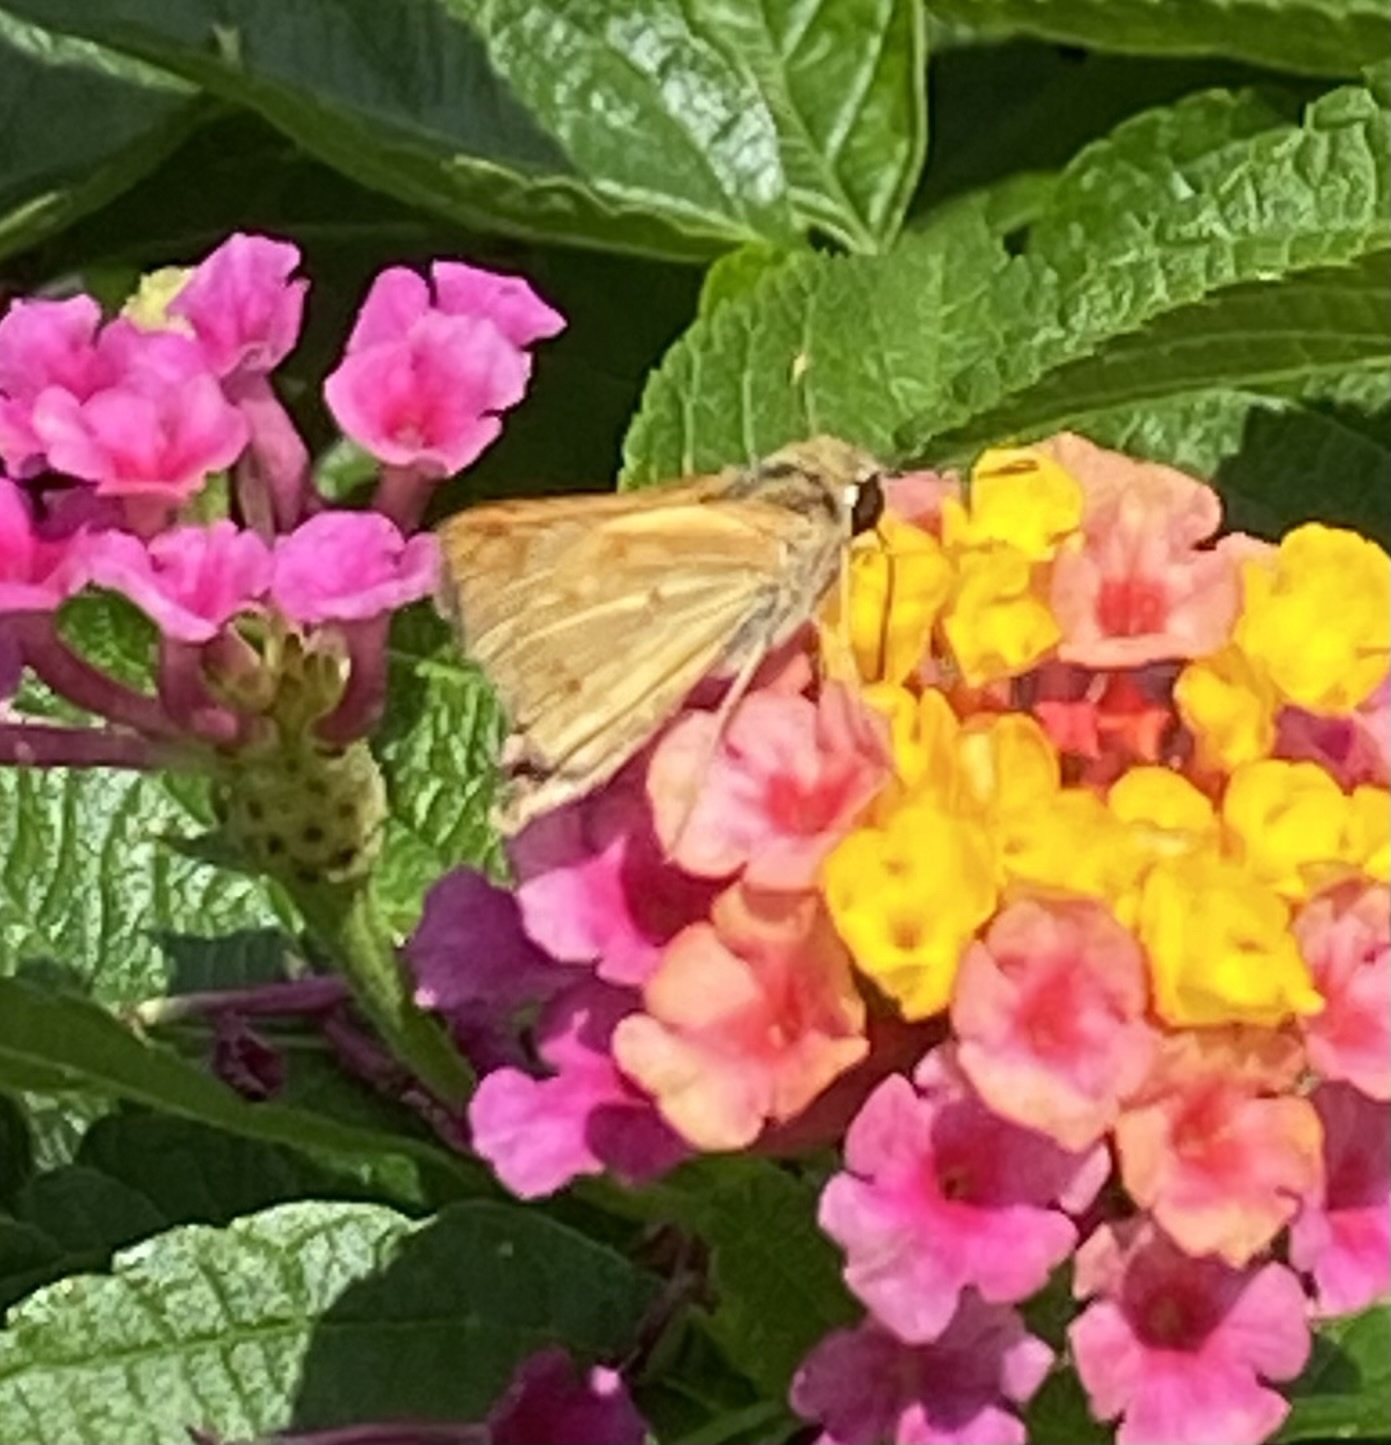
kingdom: Animalia
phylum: Arthropoda
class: Insecta
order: Lepidoptera
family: Hesperiidae
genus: Hylephila
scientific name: Hylephila phyleus
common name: Fiery skipper
